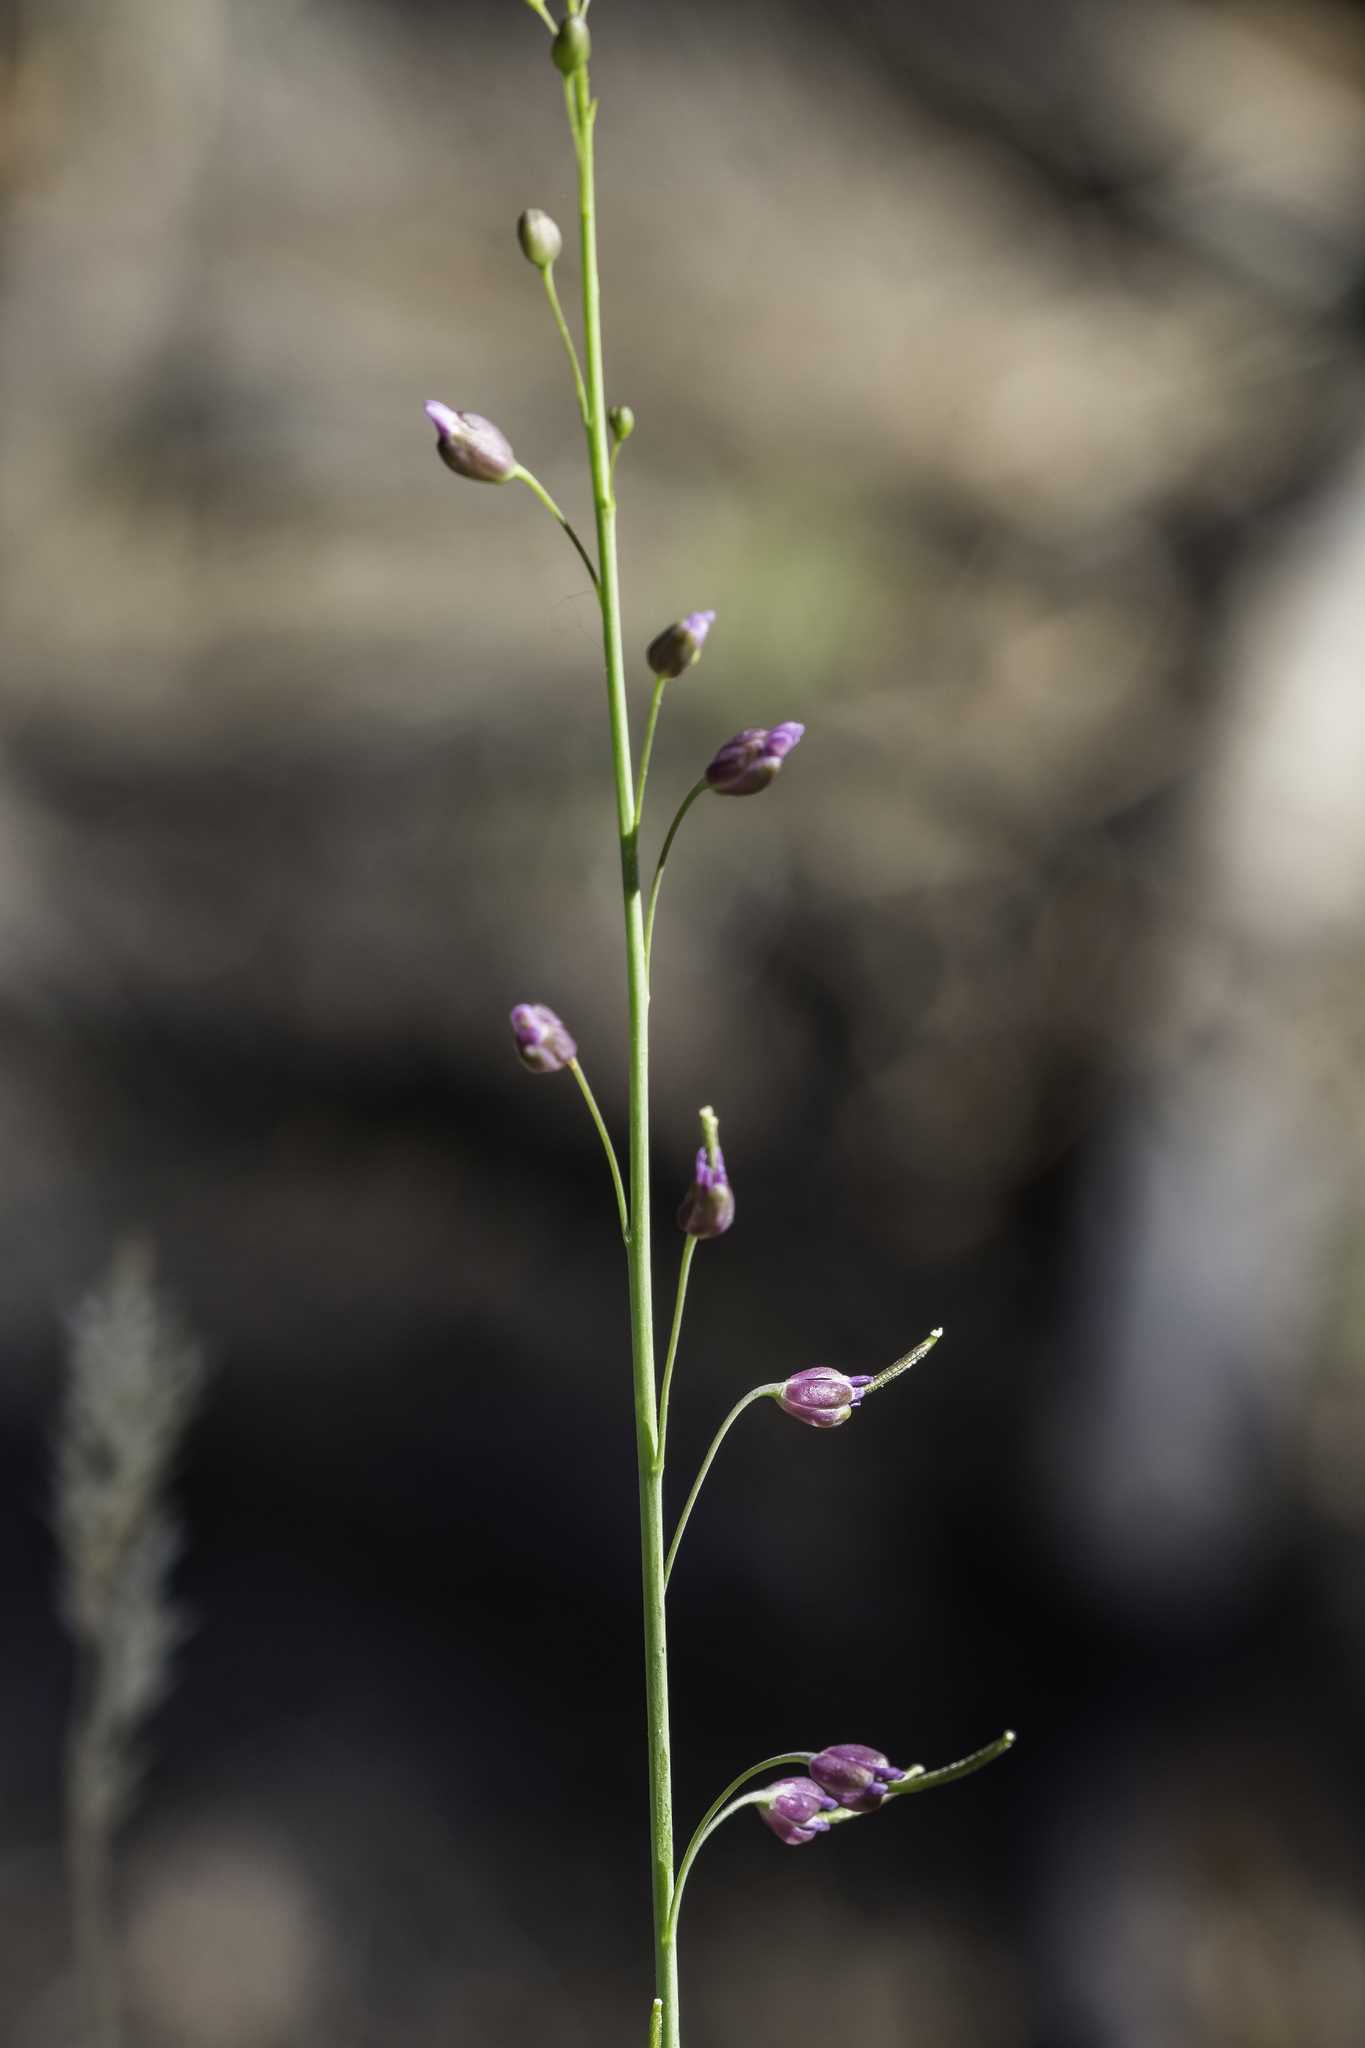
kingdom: Plantae
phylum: Tracheophyta
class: Magnoliopsida
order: Brassicales
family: Brassicaceae
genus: Pennellia
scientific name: Pennellia longifolia
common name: Longleaf mock thelypody
